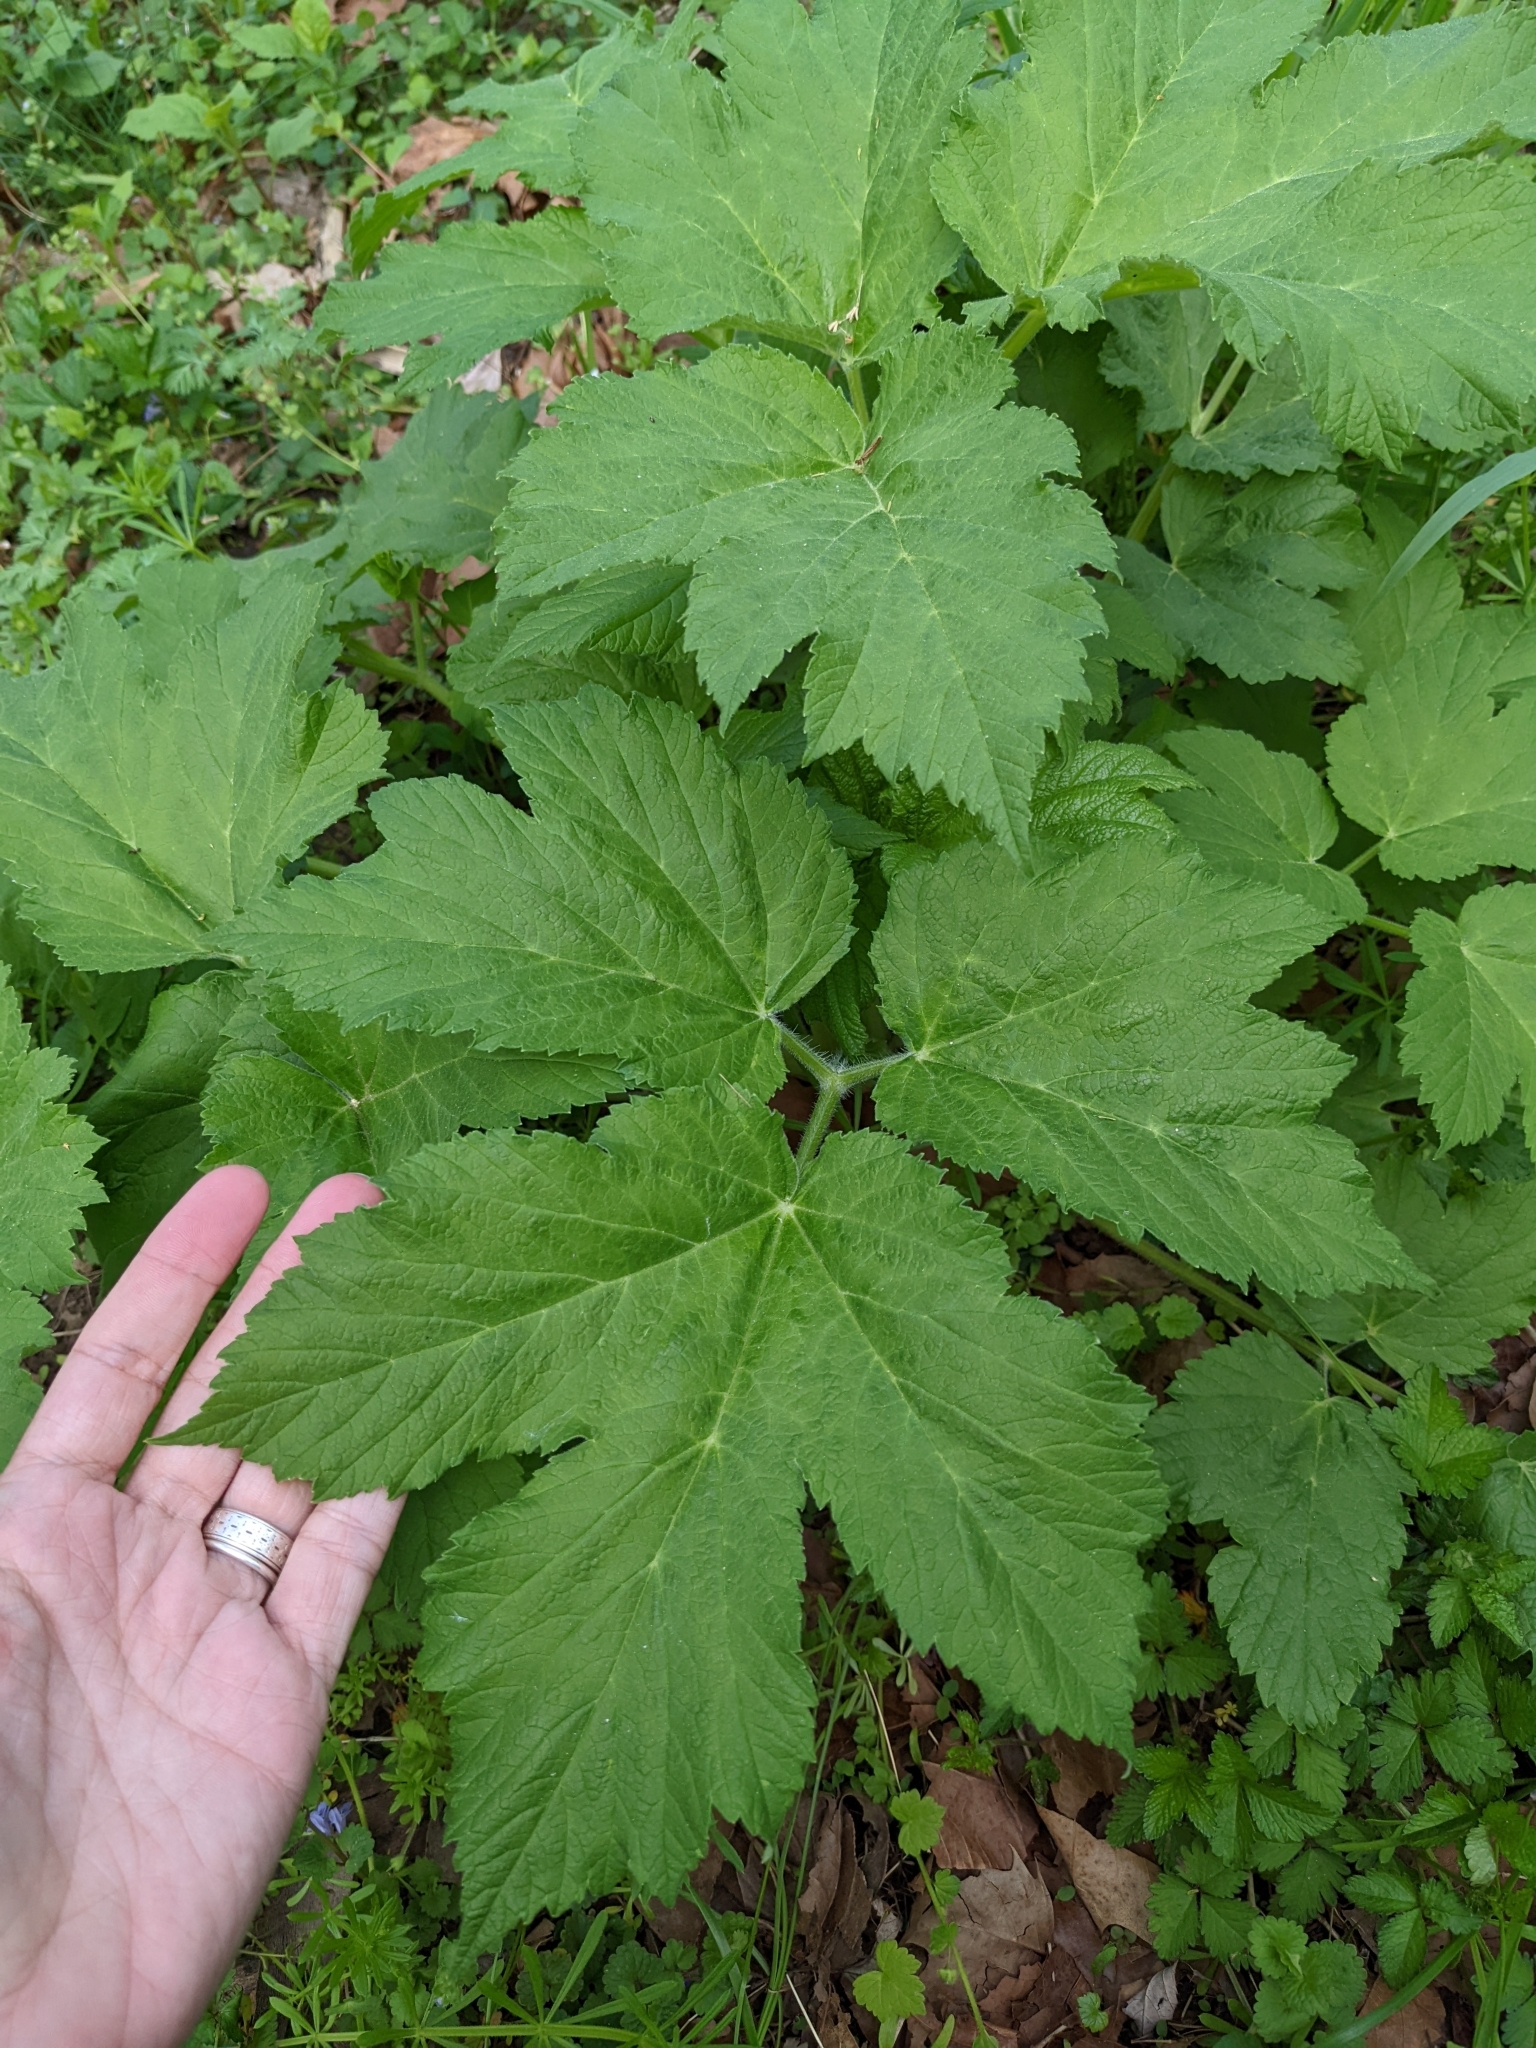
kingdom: Plantae
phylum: Tracheophyta
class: Magnoliopsida
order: Apiales
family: Apiaceae
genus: Heracleum
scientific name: Heracleum maximum
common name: American cow parsnip
